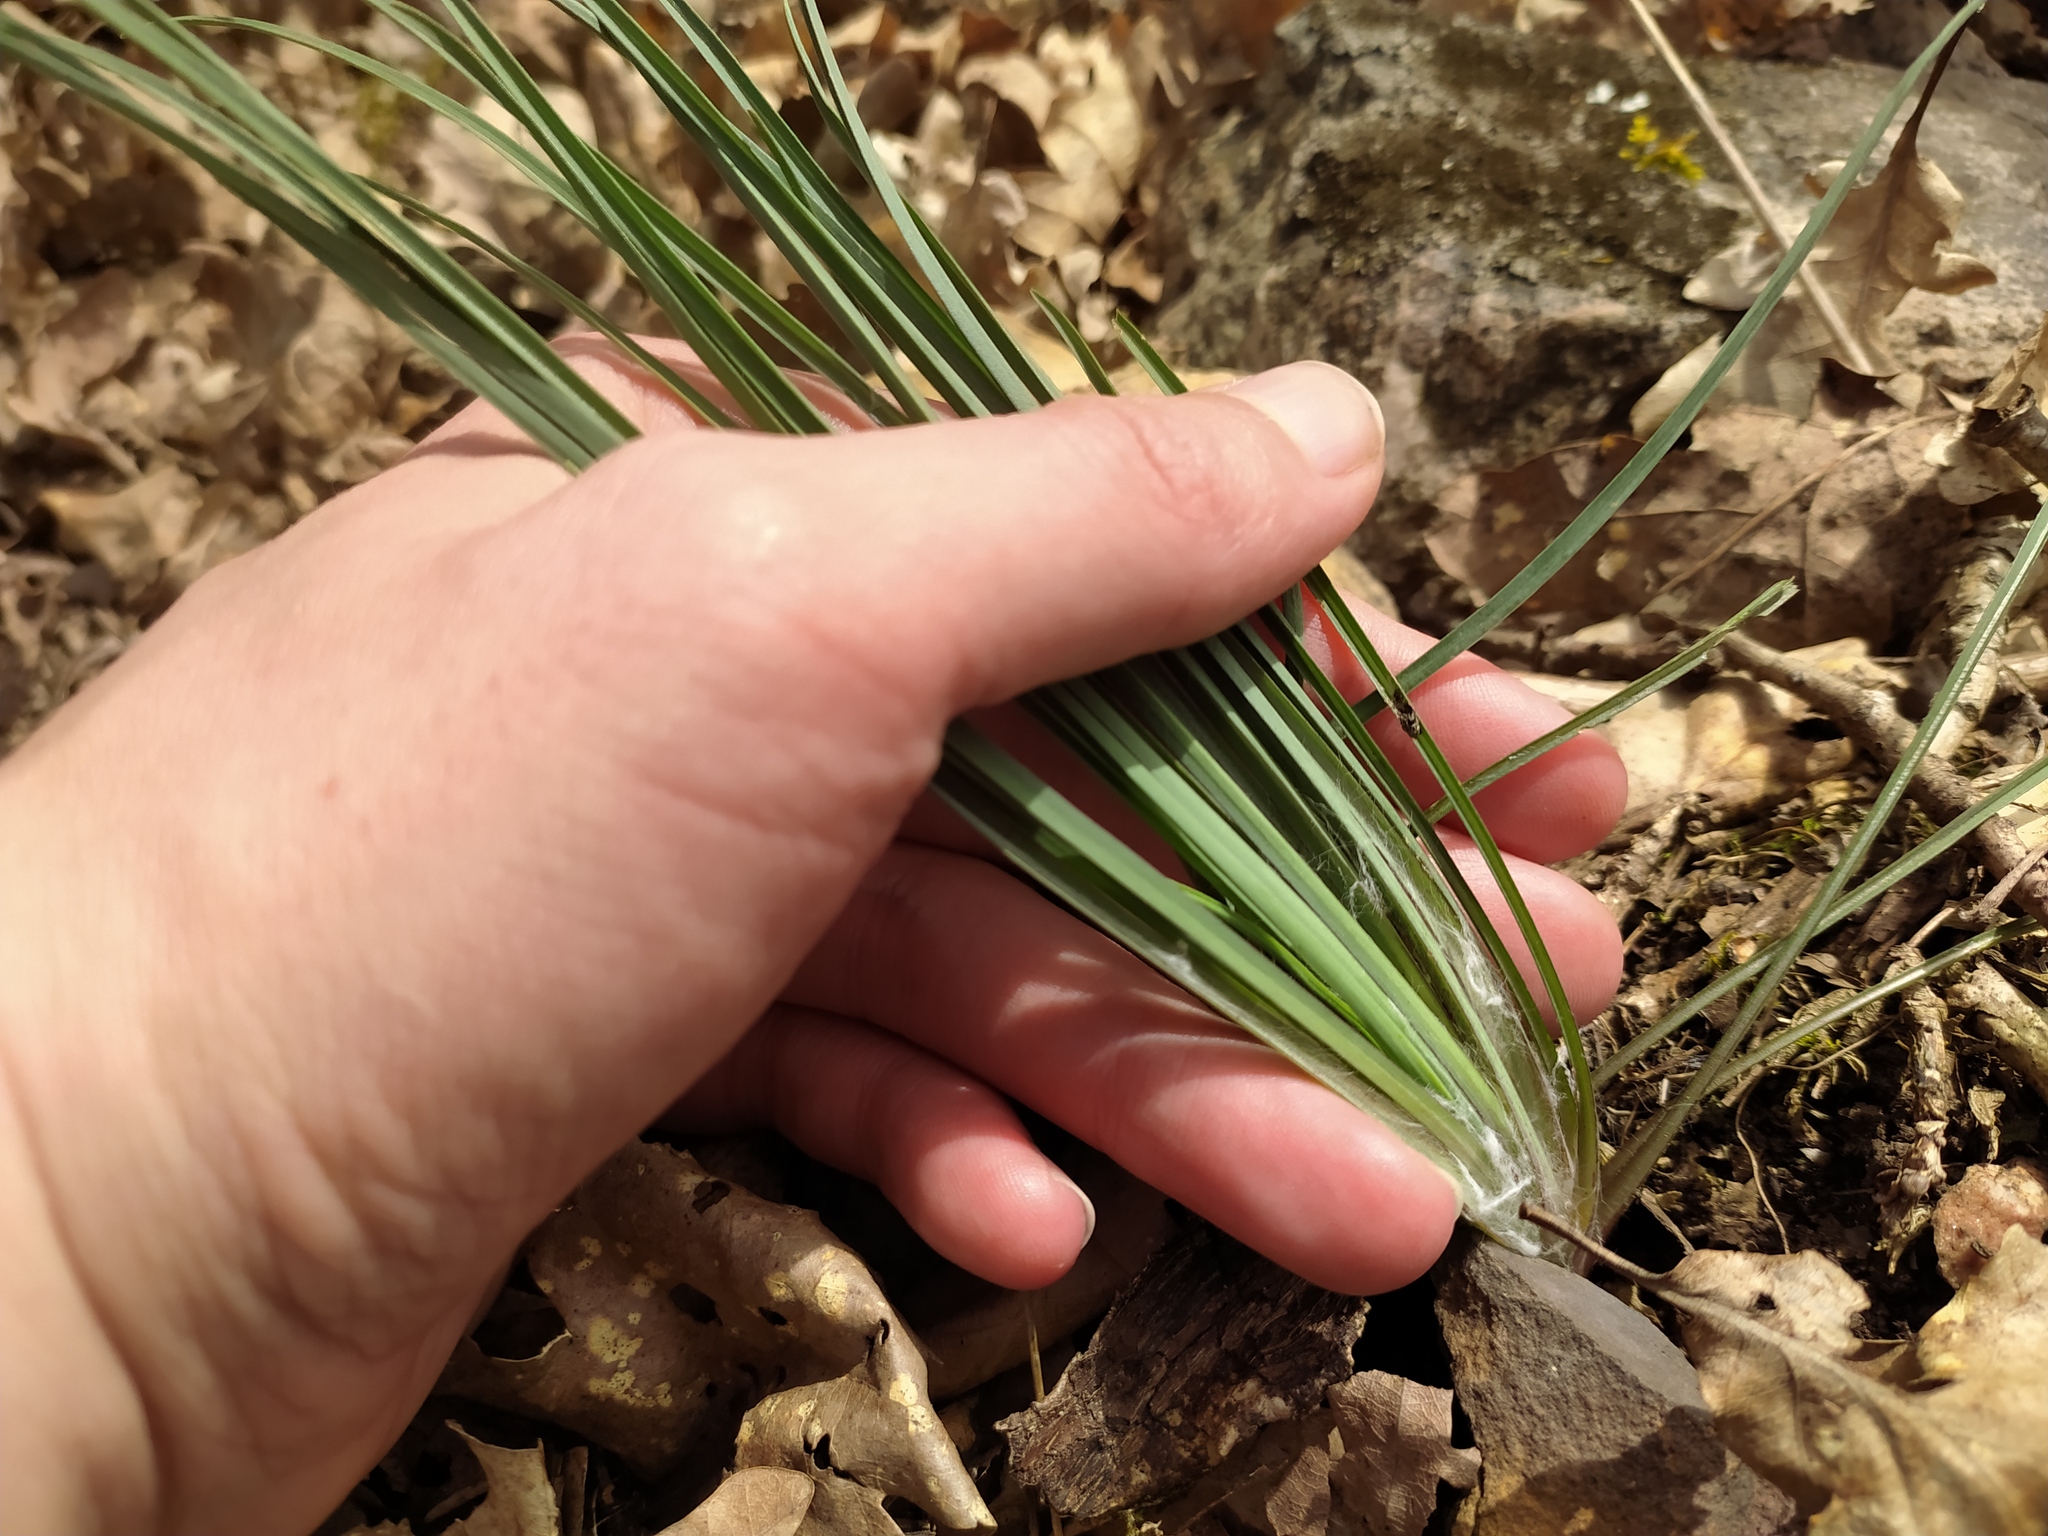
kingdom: Plantae
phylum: Tracheophyta
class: Liliopsida
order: Asparagales
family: Asparagaceae
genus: Anthericum
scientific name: Anthericum liliago
